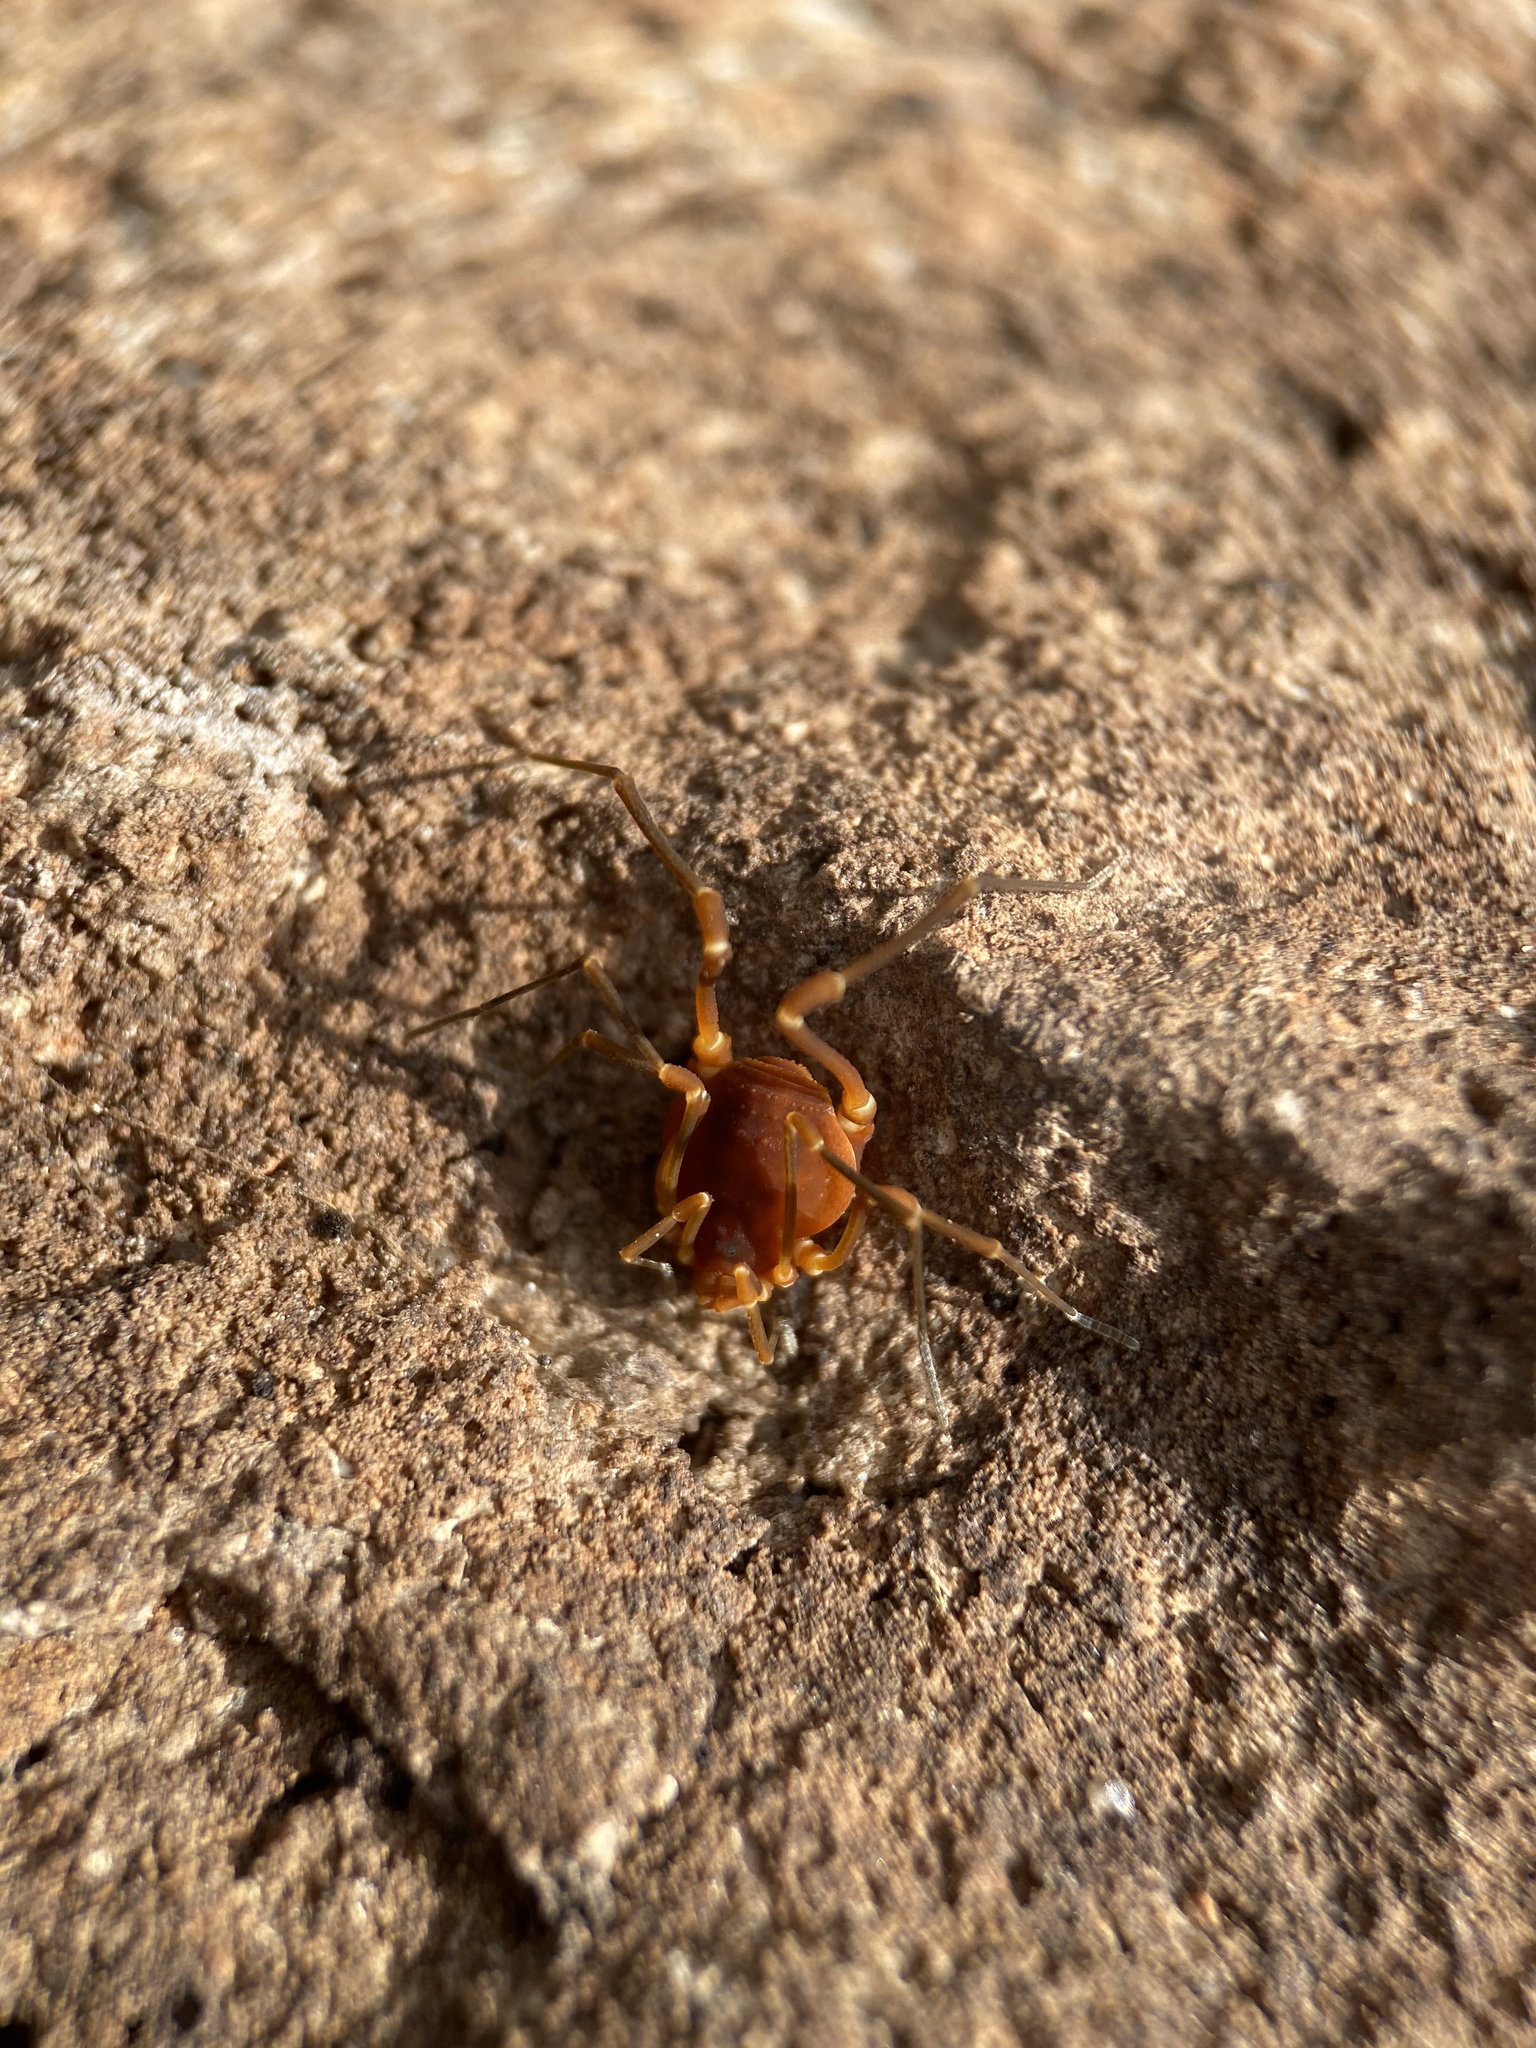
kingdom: Animalia
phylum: Arthropoda
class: Arachnida
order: Opiliones
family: Cosmetidae
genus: Libitioides
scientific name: Libitioides sayi
